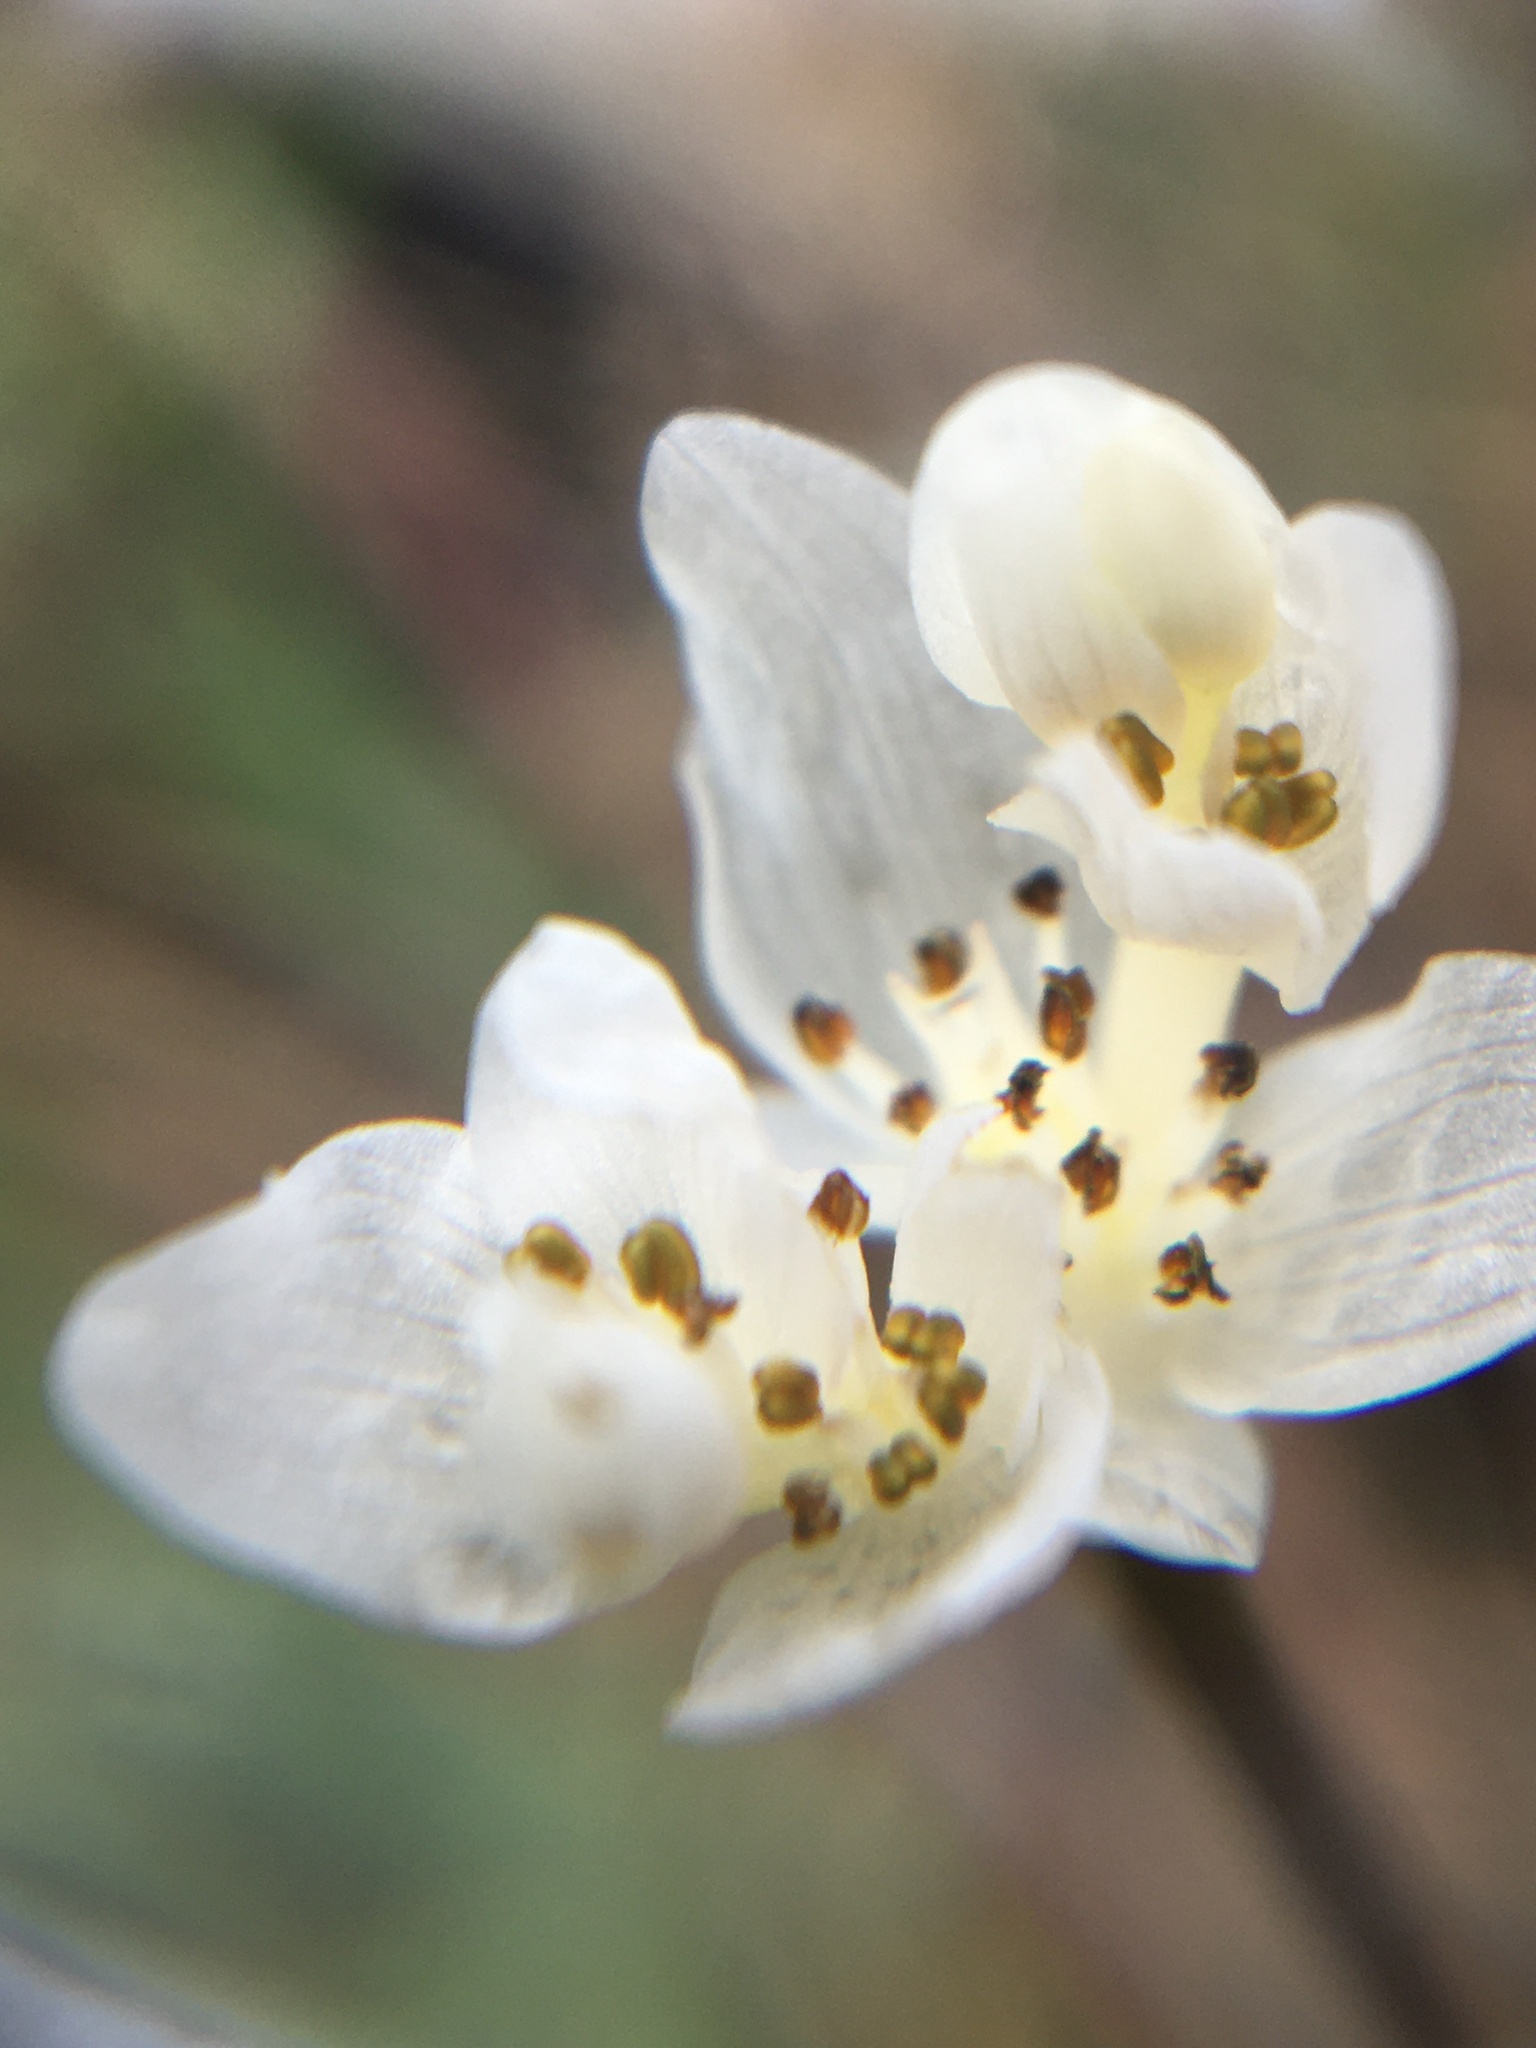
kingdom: Plantae
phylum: Tracheophyta
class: Liliopsida
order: Alismatales
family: Aponogetonaceae
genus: Aponogeton
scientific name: Aponogeton angustifolius
